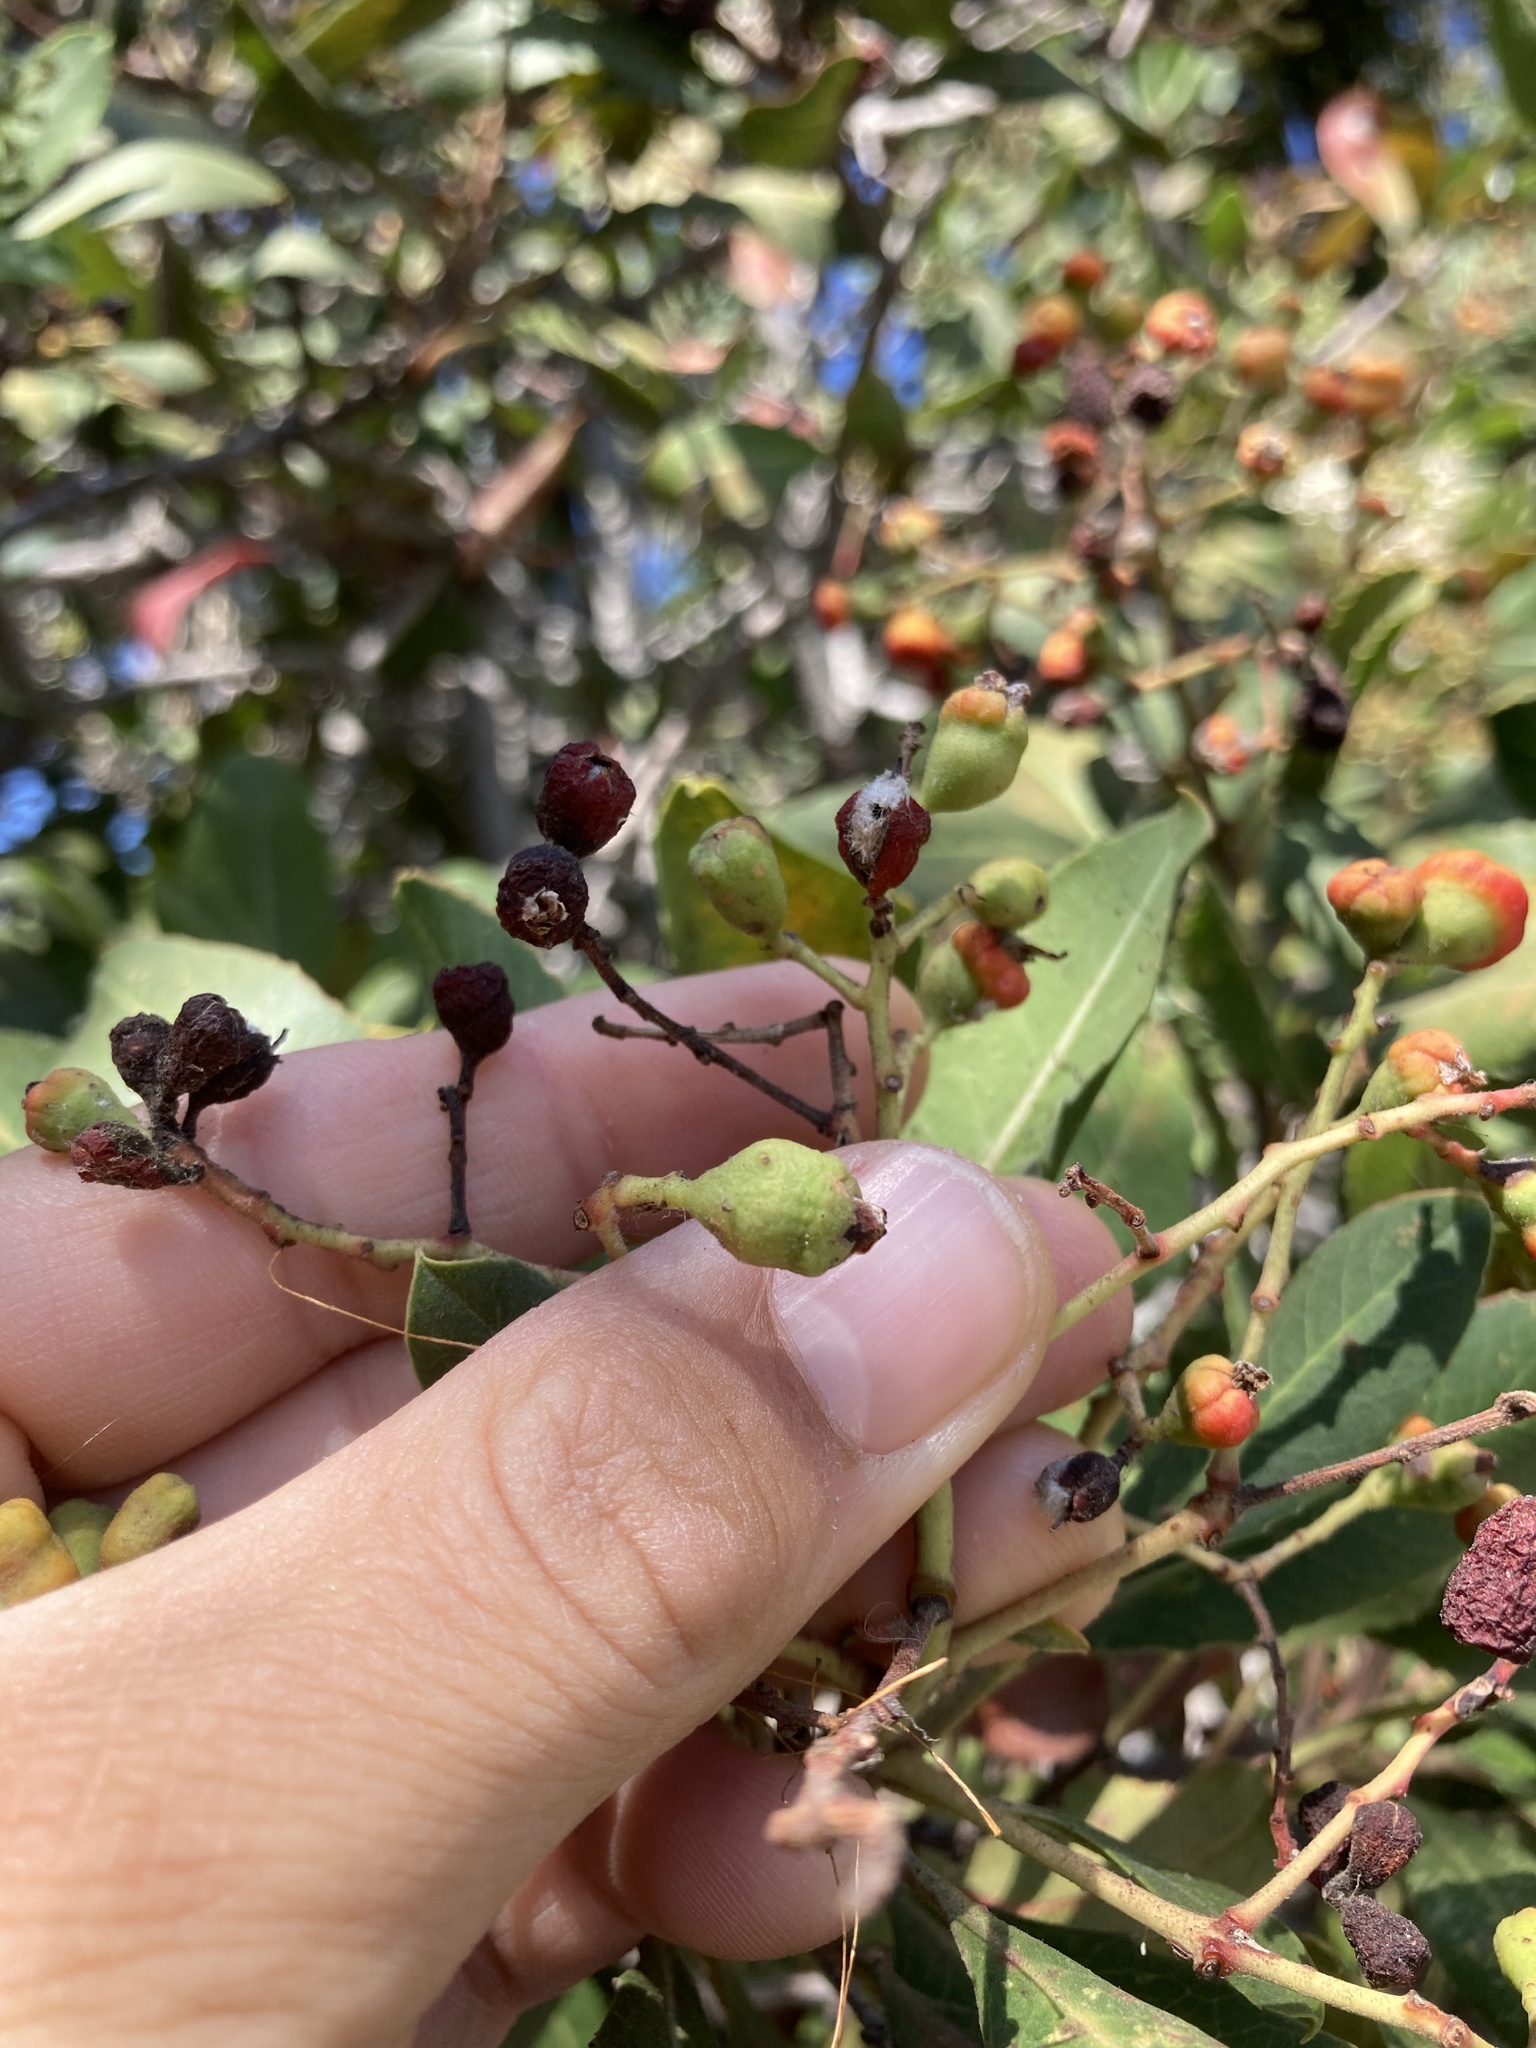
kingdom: Animalia
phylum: Arthropoda
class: Insecta
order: Diptera
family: Cecidomyiidae
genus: Asphondylia
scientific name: Asphondylia photiniae
